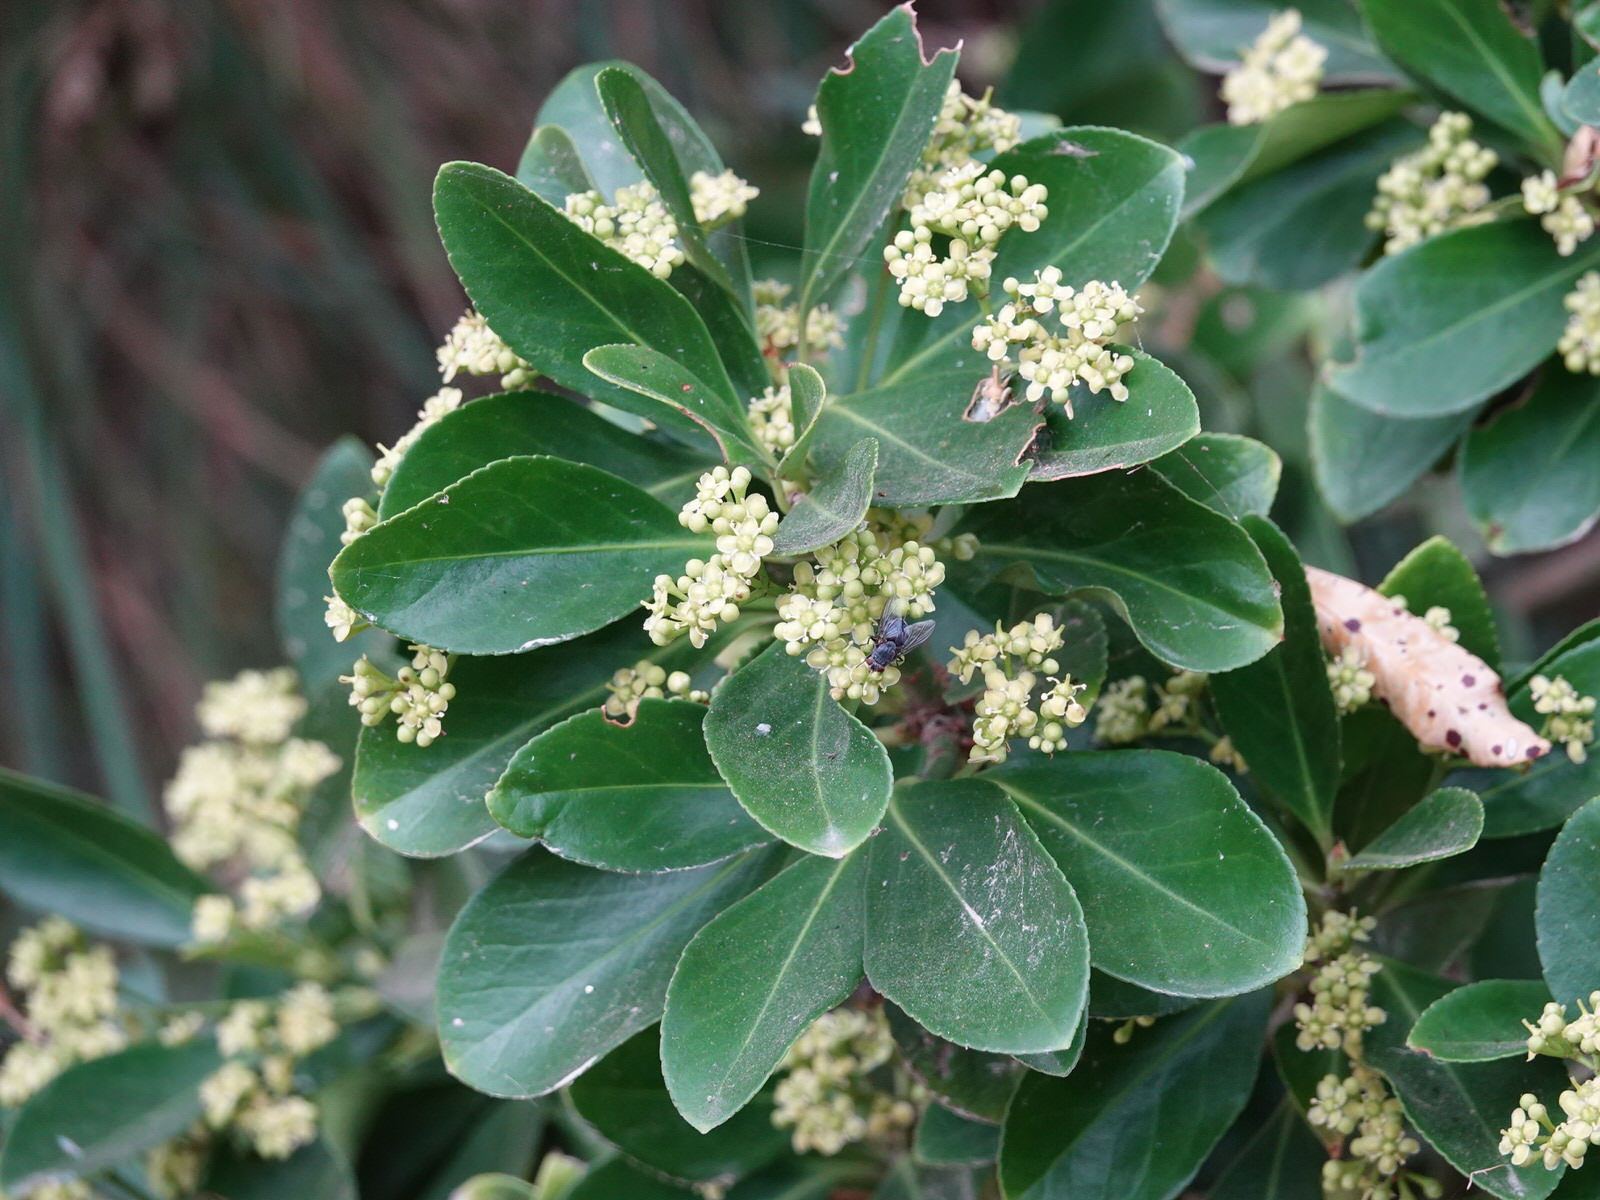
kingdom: Plantae
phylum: Tracheophyta
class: Magnoliopsida
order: Celastrales
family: Celastraceae
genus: Euonymus
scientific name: Euonymus japonicus
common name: Japanese spindletree
